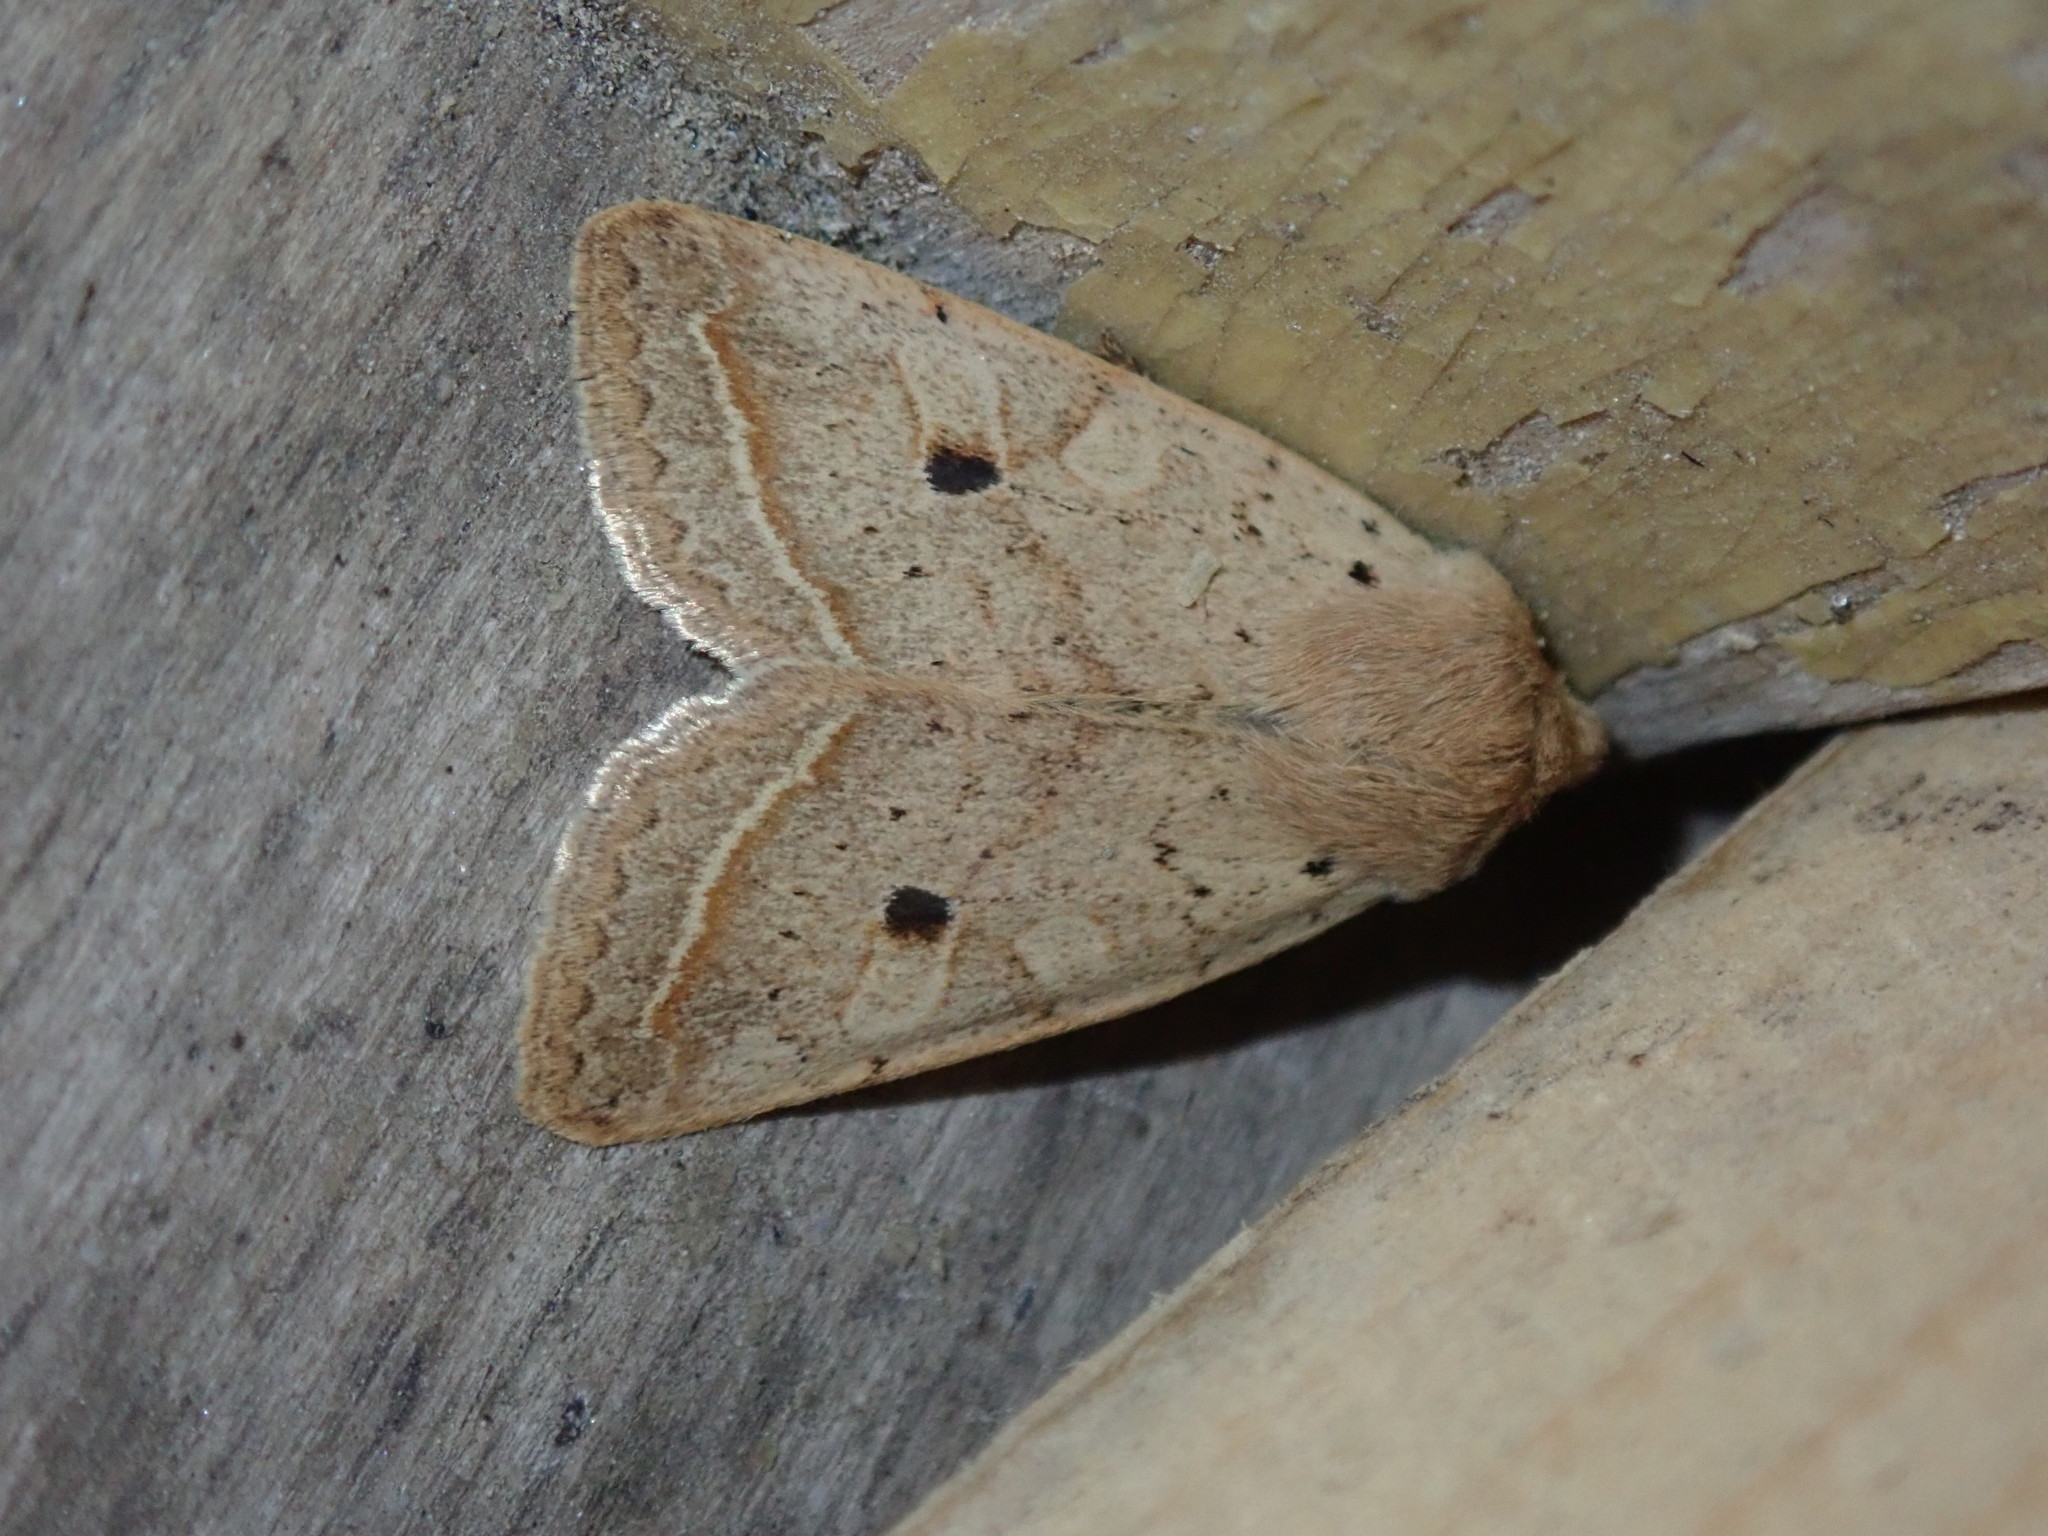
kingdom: Animalia
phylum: Arthropoda
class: Insecta
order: Lepidoptera
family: Noctuidae
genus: Agrochola
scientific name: Agrochola macilenta
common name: Yellow-line quaker
